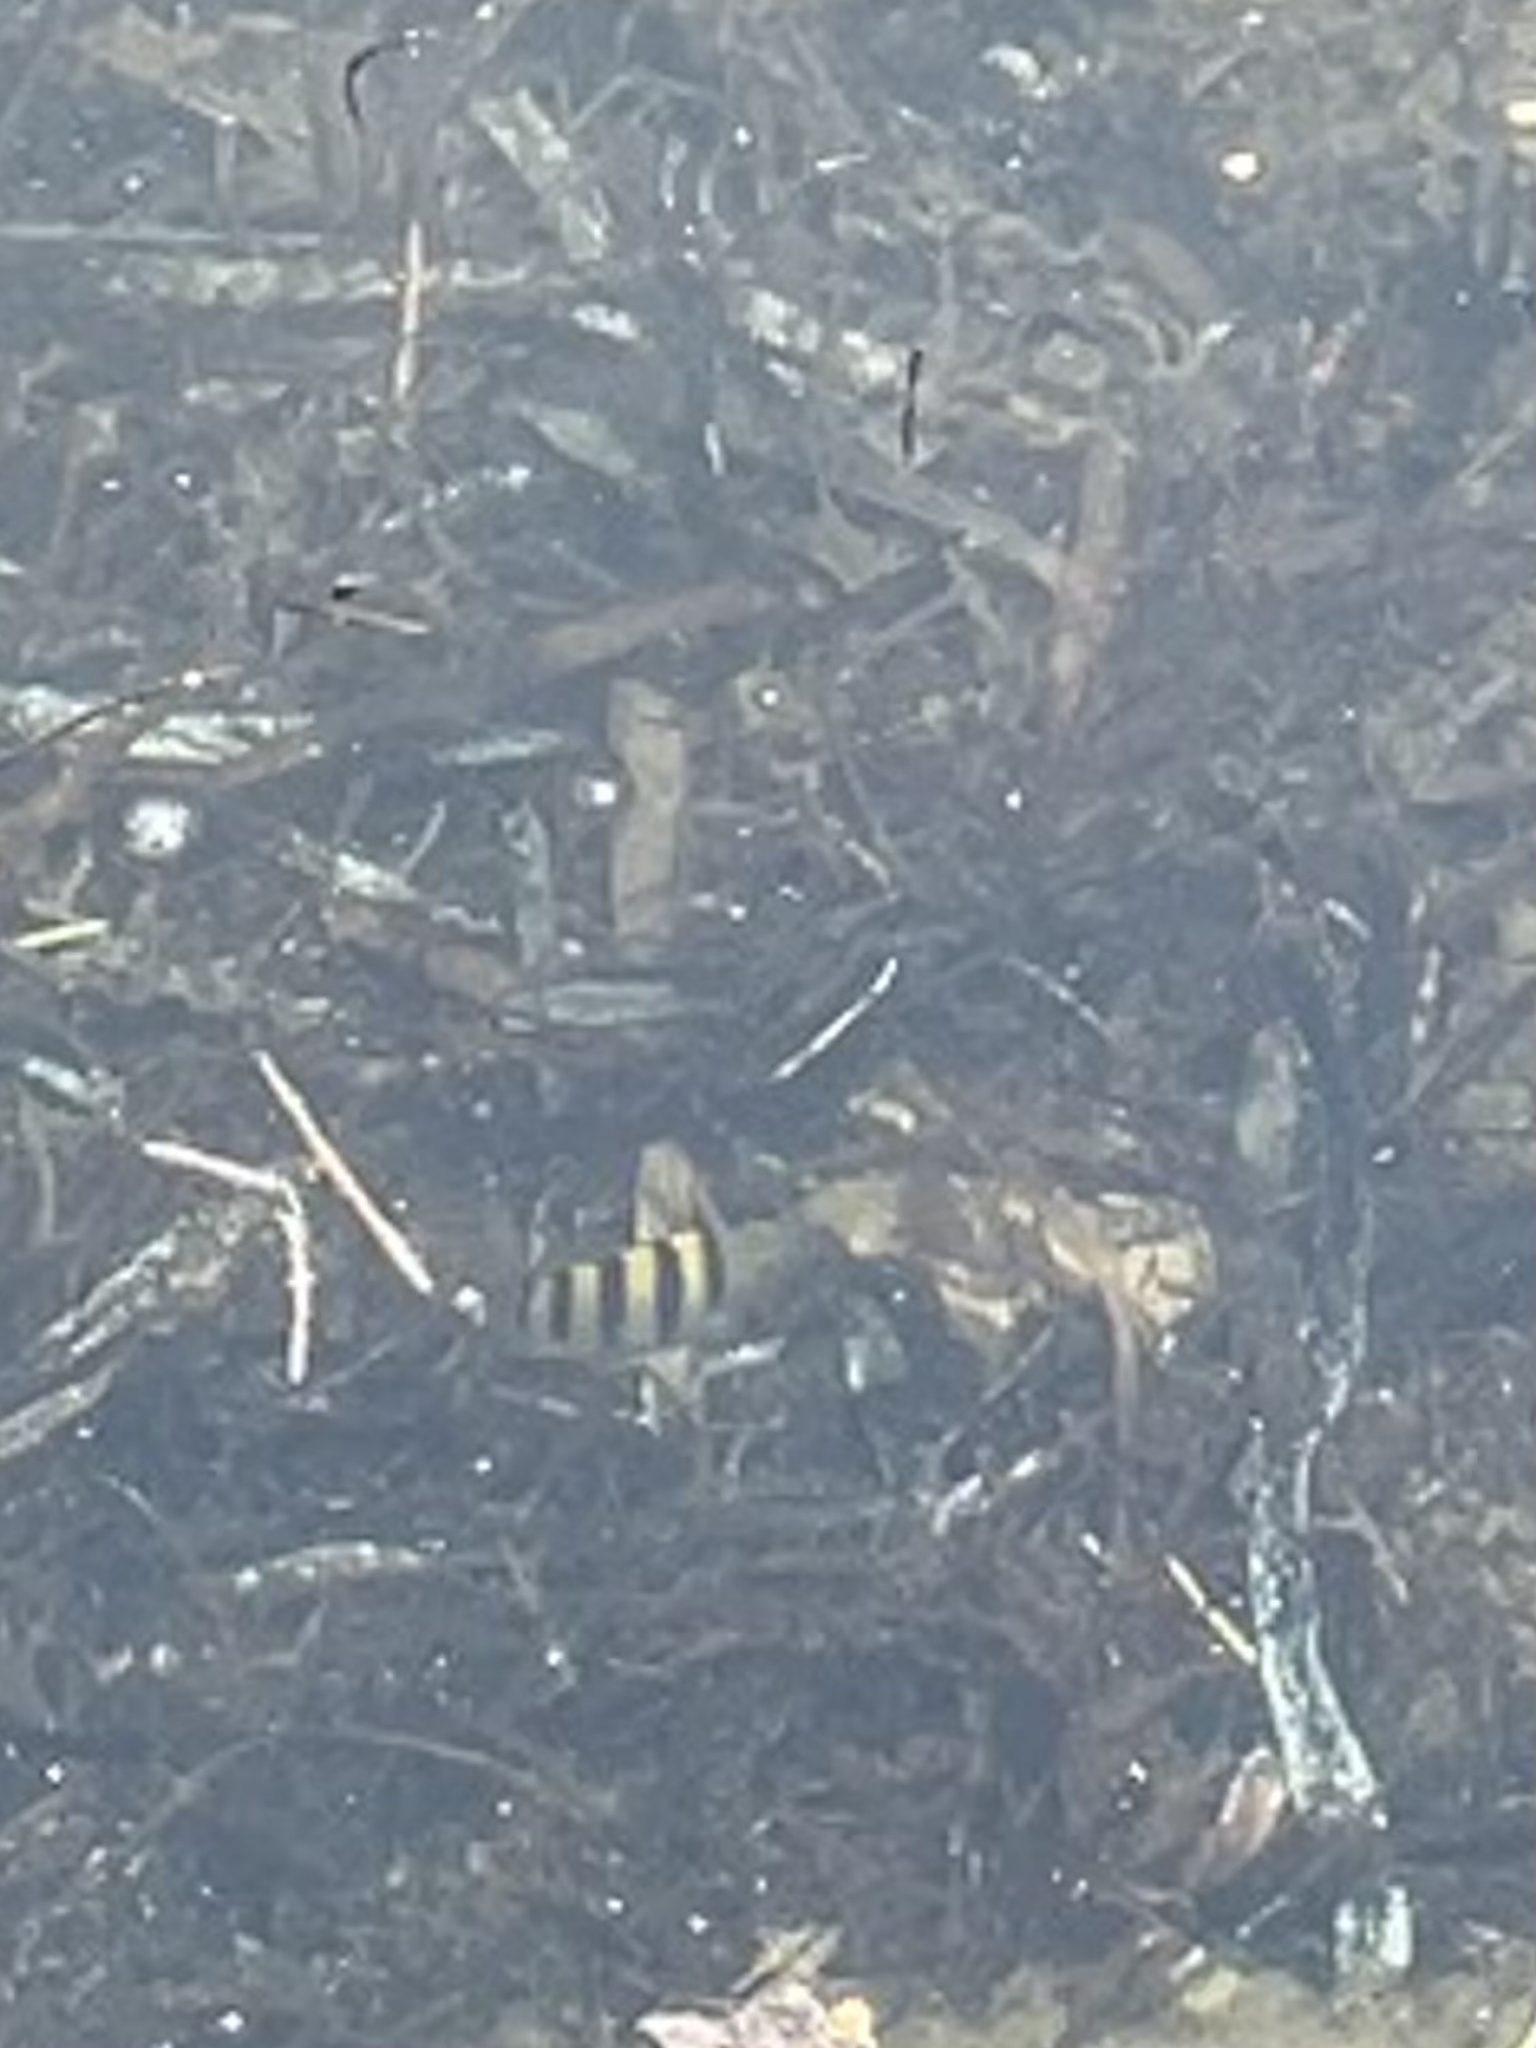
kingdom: Animalia
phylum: Chordata
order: Perciformes
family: Pomacentridae
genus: Abudefduf
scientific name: Abudefduf saxatilis
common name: Sergeant major
